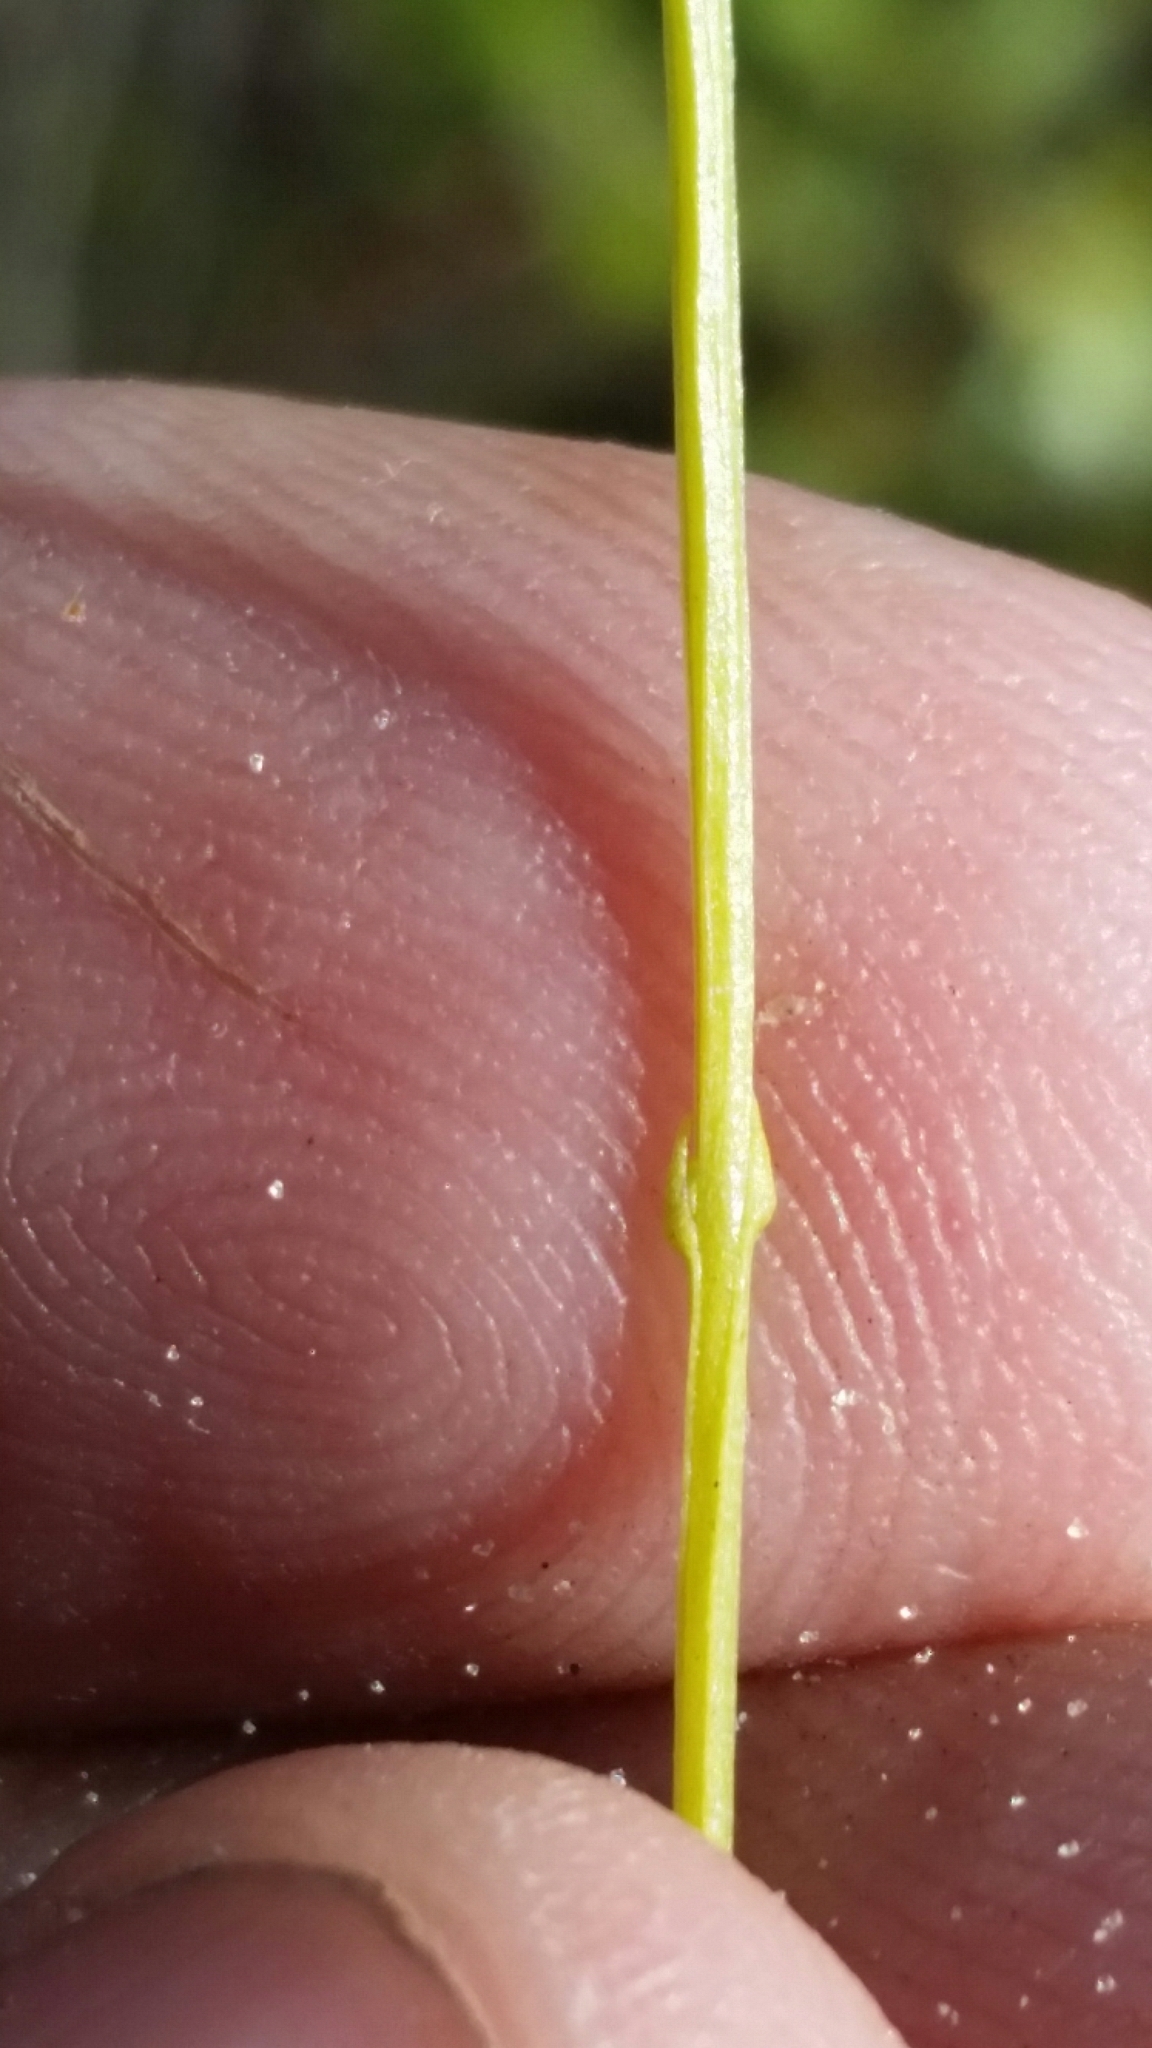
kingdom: Plantae
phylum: Tracheophyta
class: Magnoliopsida
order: Gentianales
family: Gentianaceae
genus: Bartonia
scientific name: Bartonia virginica
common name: Yellow bartonia
